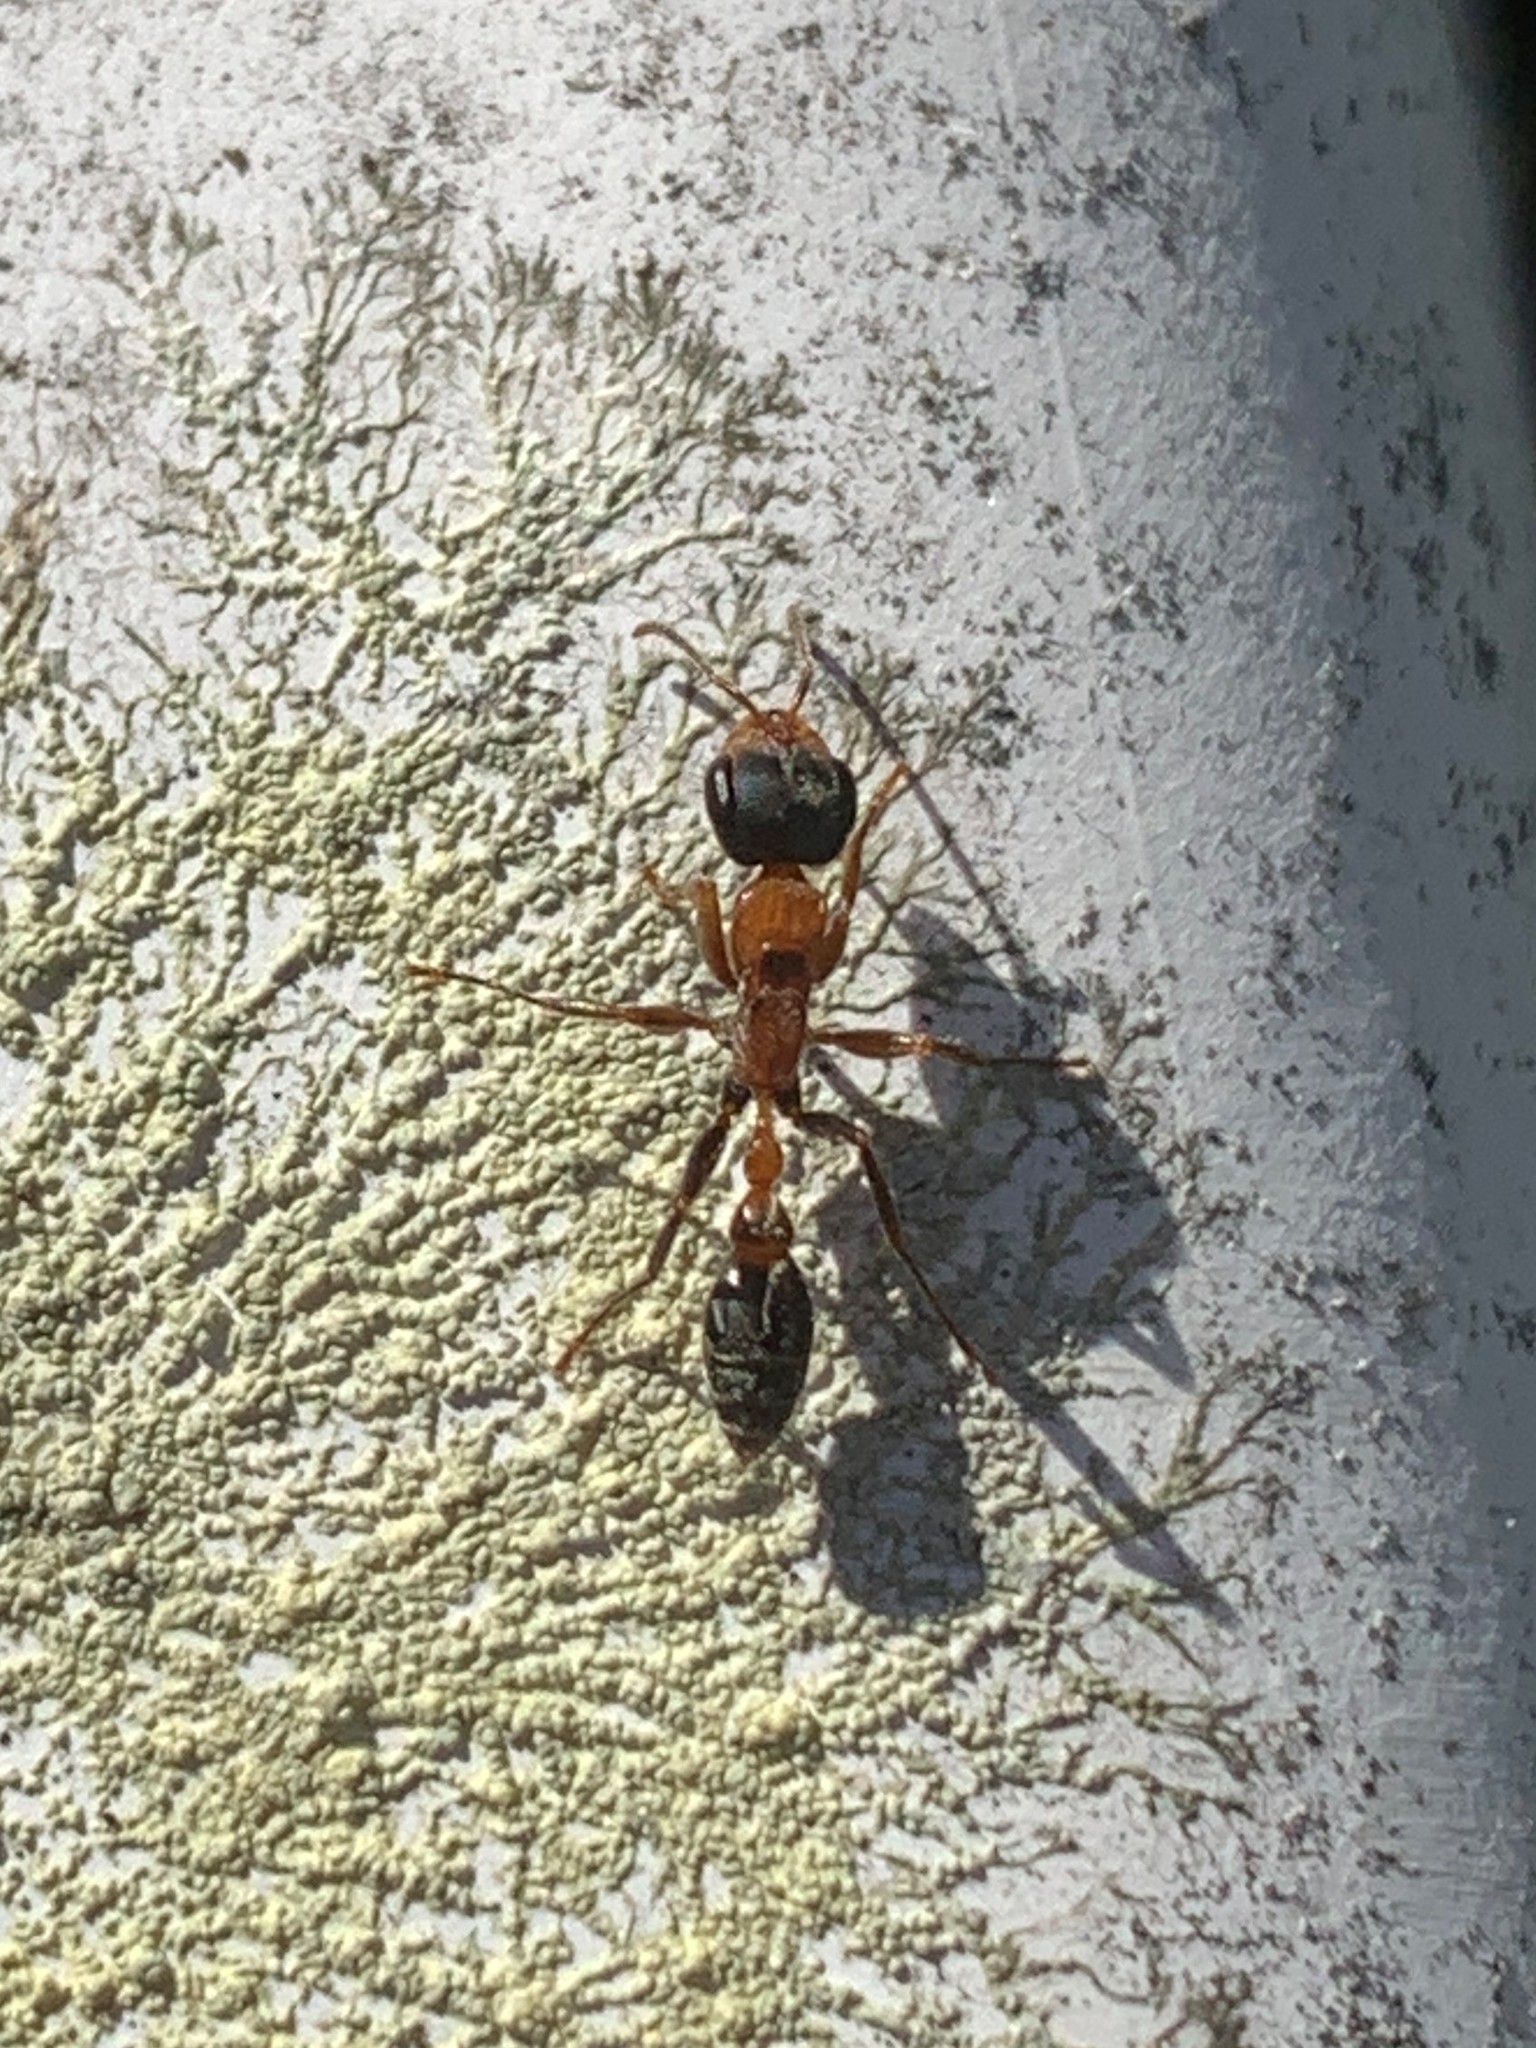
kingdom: Animalia
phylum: Arthropoda
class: Insecta
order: Hymenoptera
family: Formicidae
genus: Pseudomyrmex
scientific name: Pseudomyrmex gracilis
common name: Graceful twig ant
